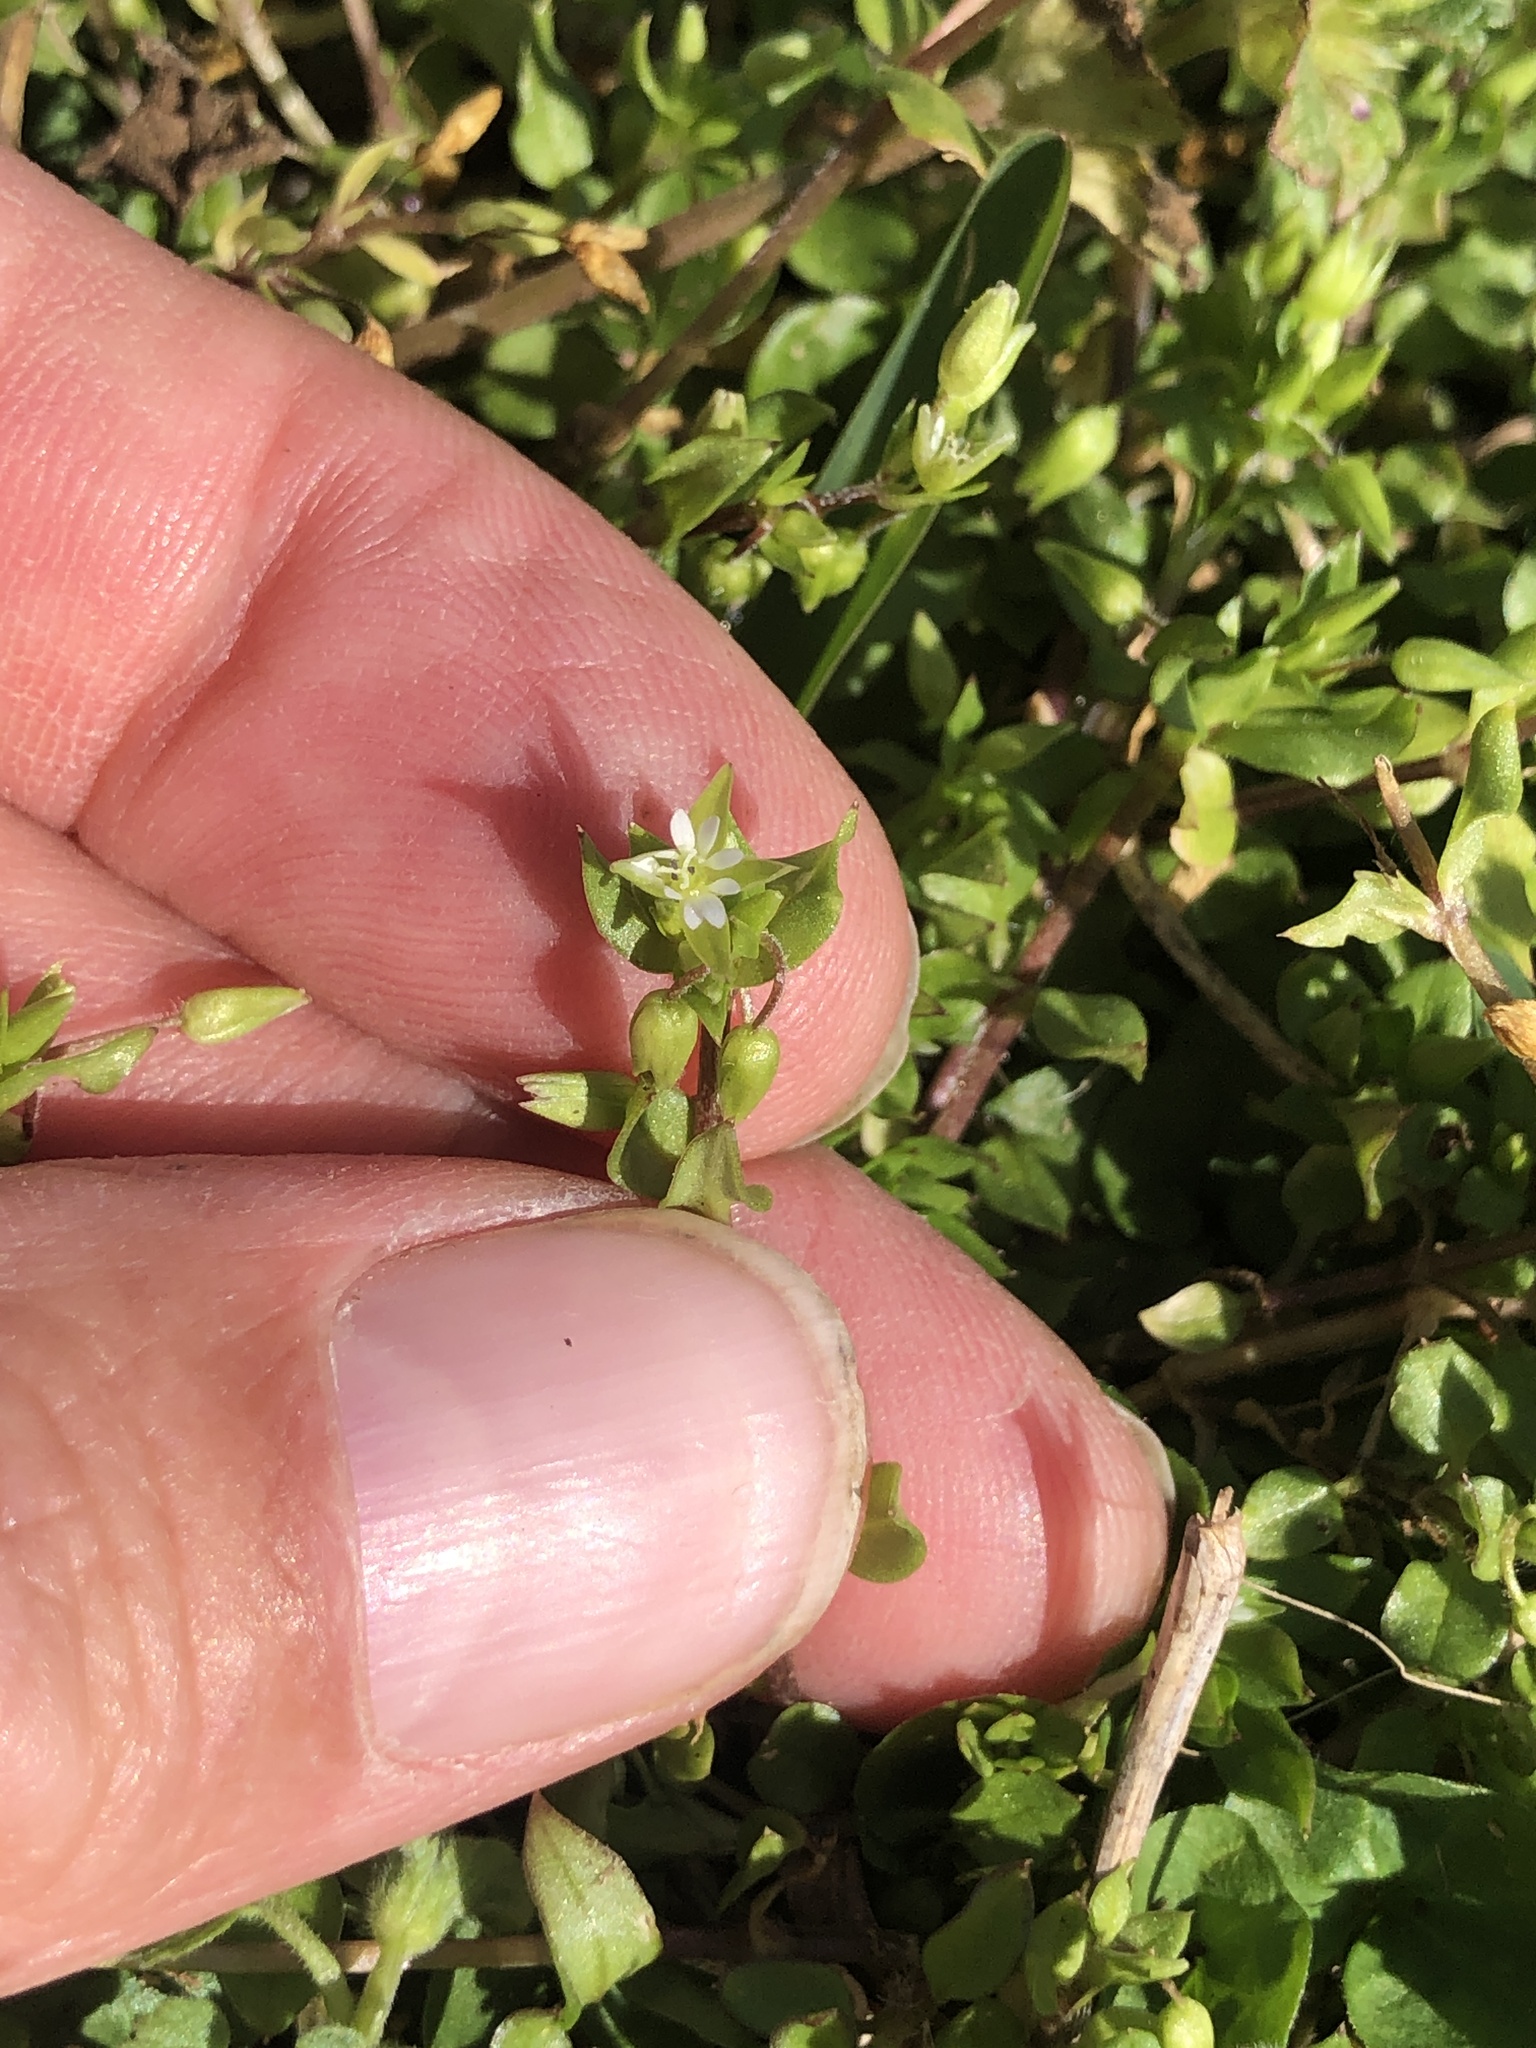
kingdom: Plantae
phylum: Tracheophyta
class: Magnoliopsida
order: Caryophyllales
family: Caryophyllaceae
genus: Stellaria
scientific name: Stellaria media
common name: Common chickweed
